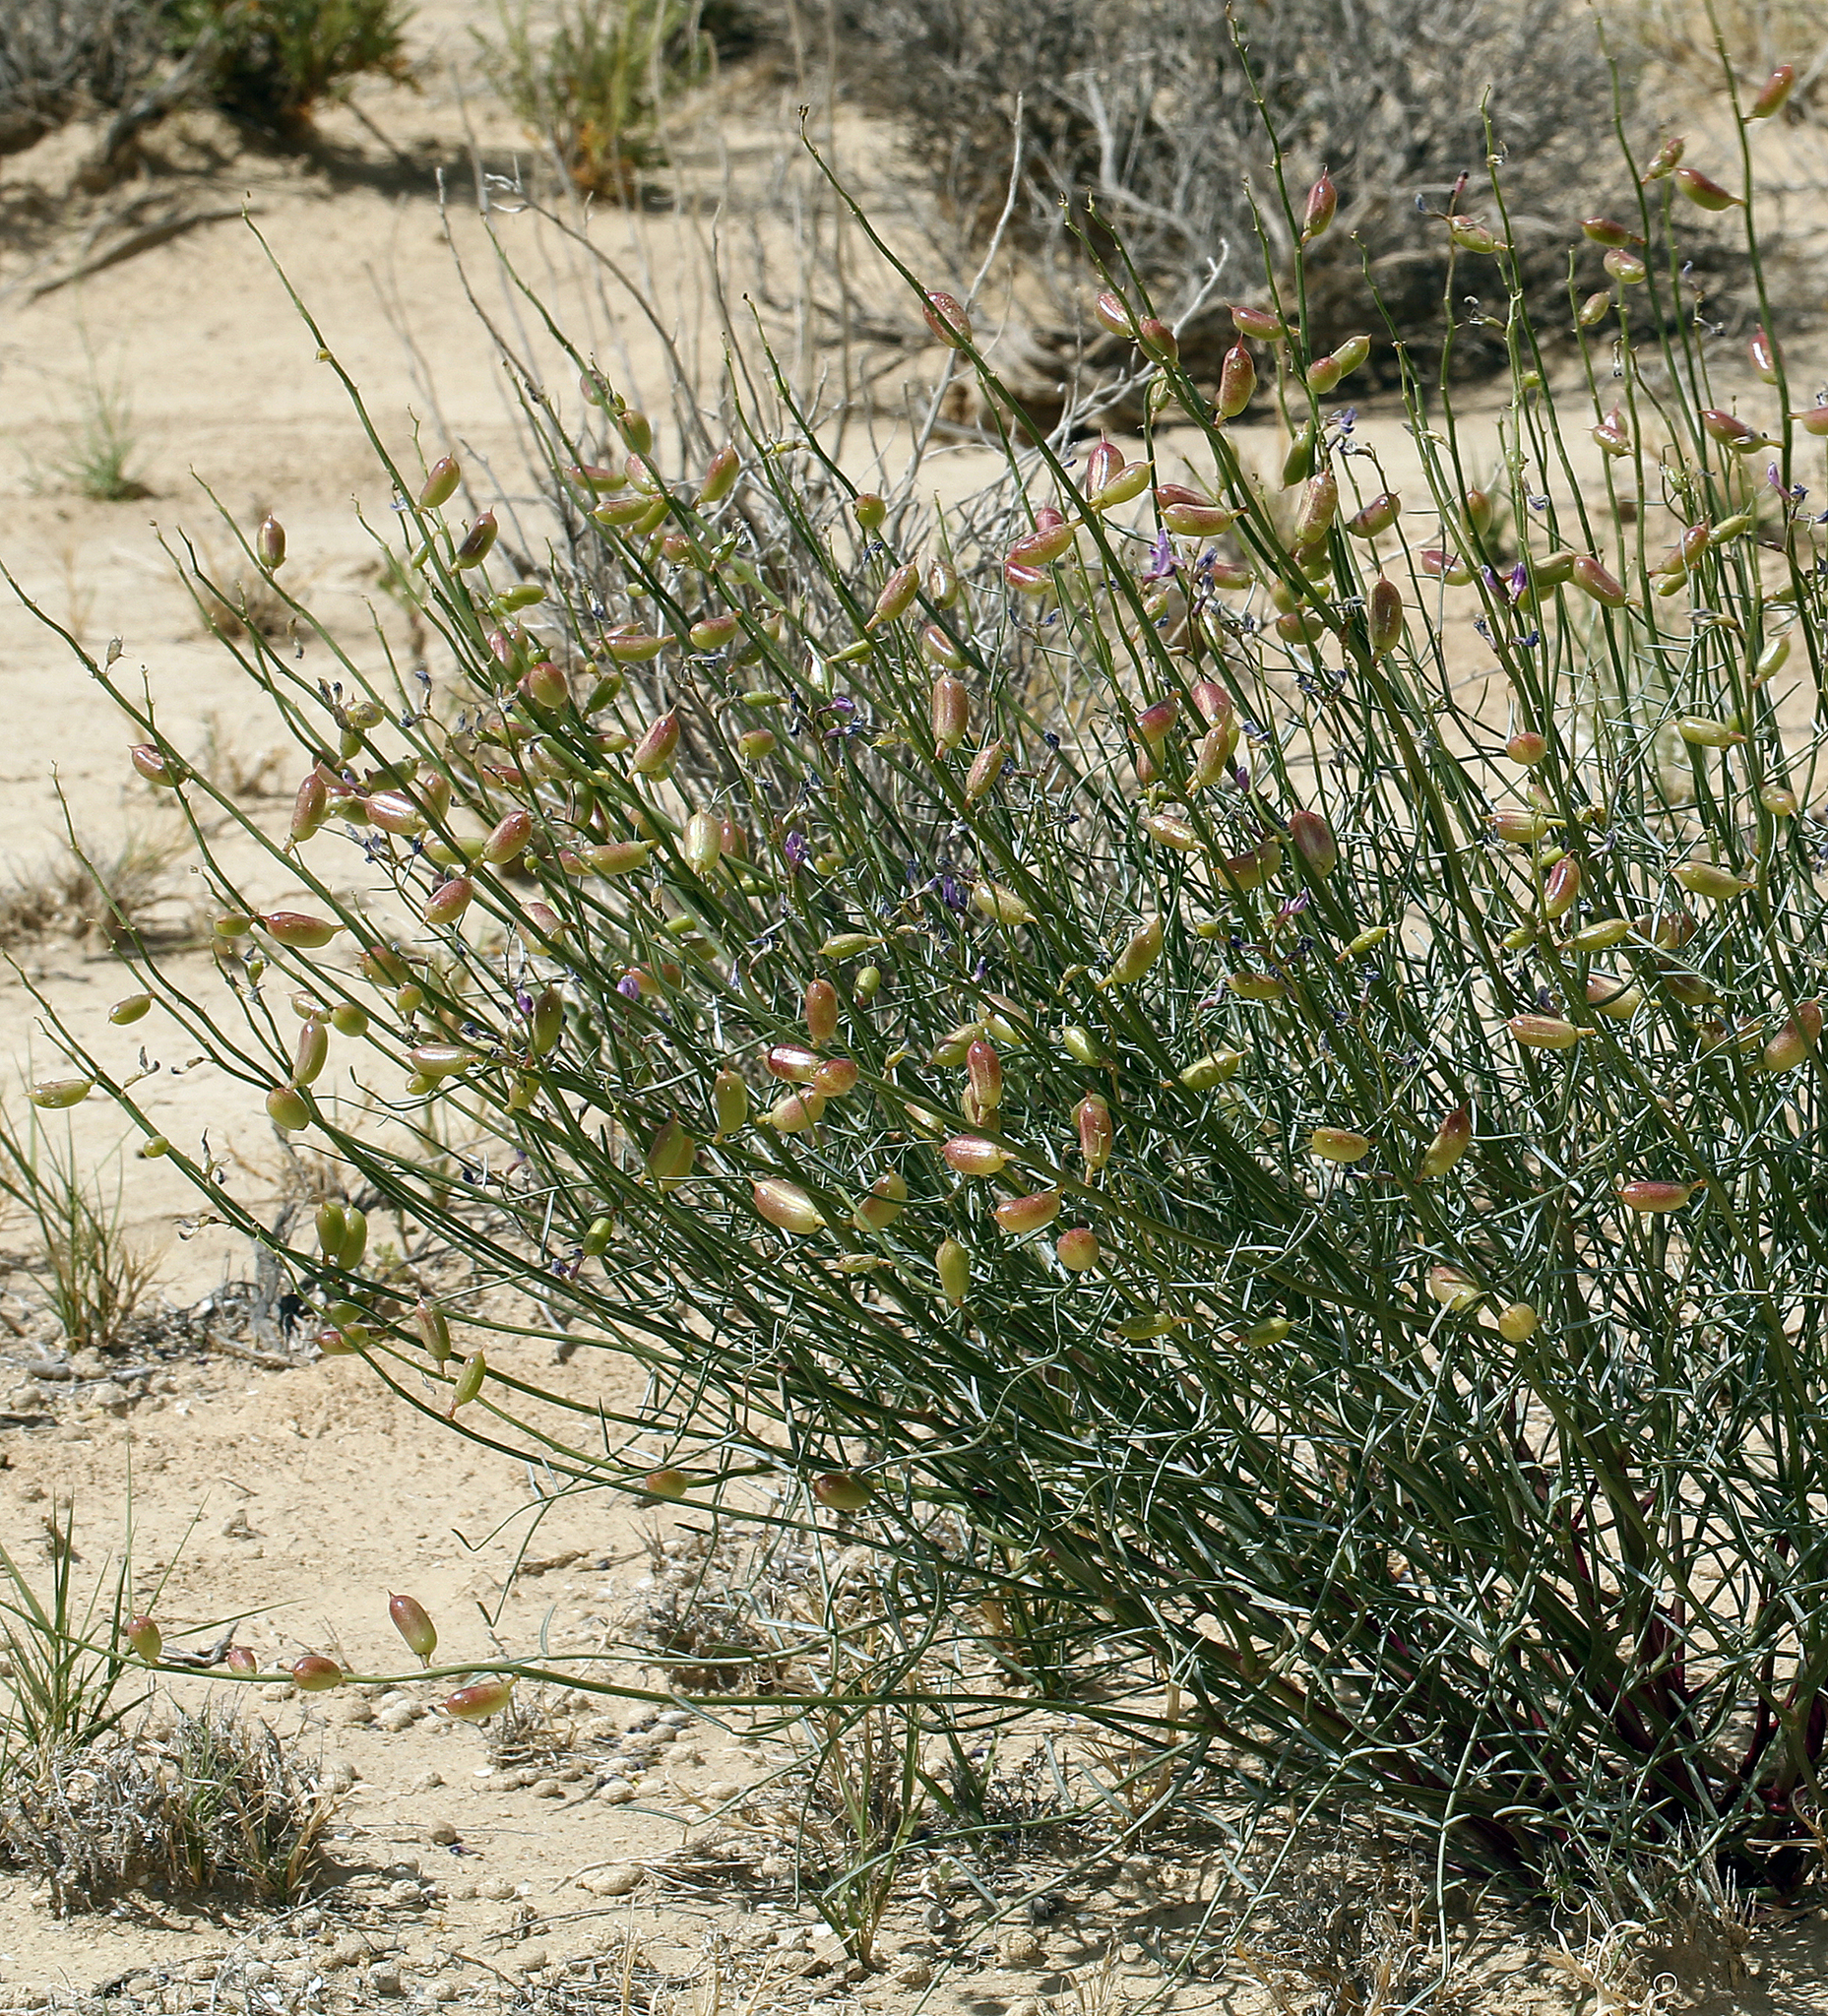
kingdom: Plantae
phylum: Tracheophyta
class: Magnoliopsida
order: Fabales
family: Fabaceae
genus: Astragalus
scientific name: Astragalus serenoi
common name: Naked milk-vetch
